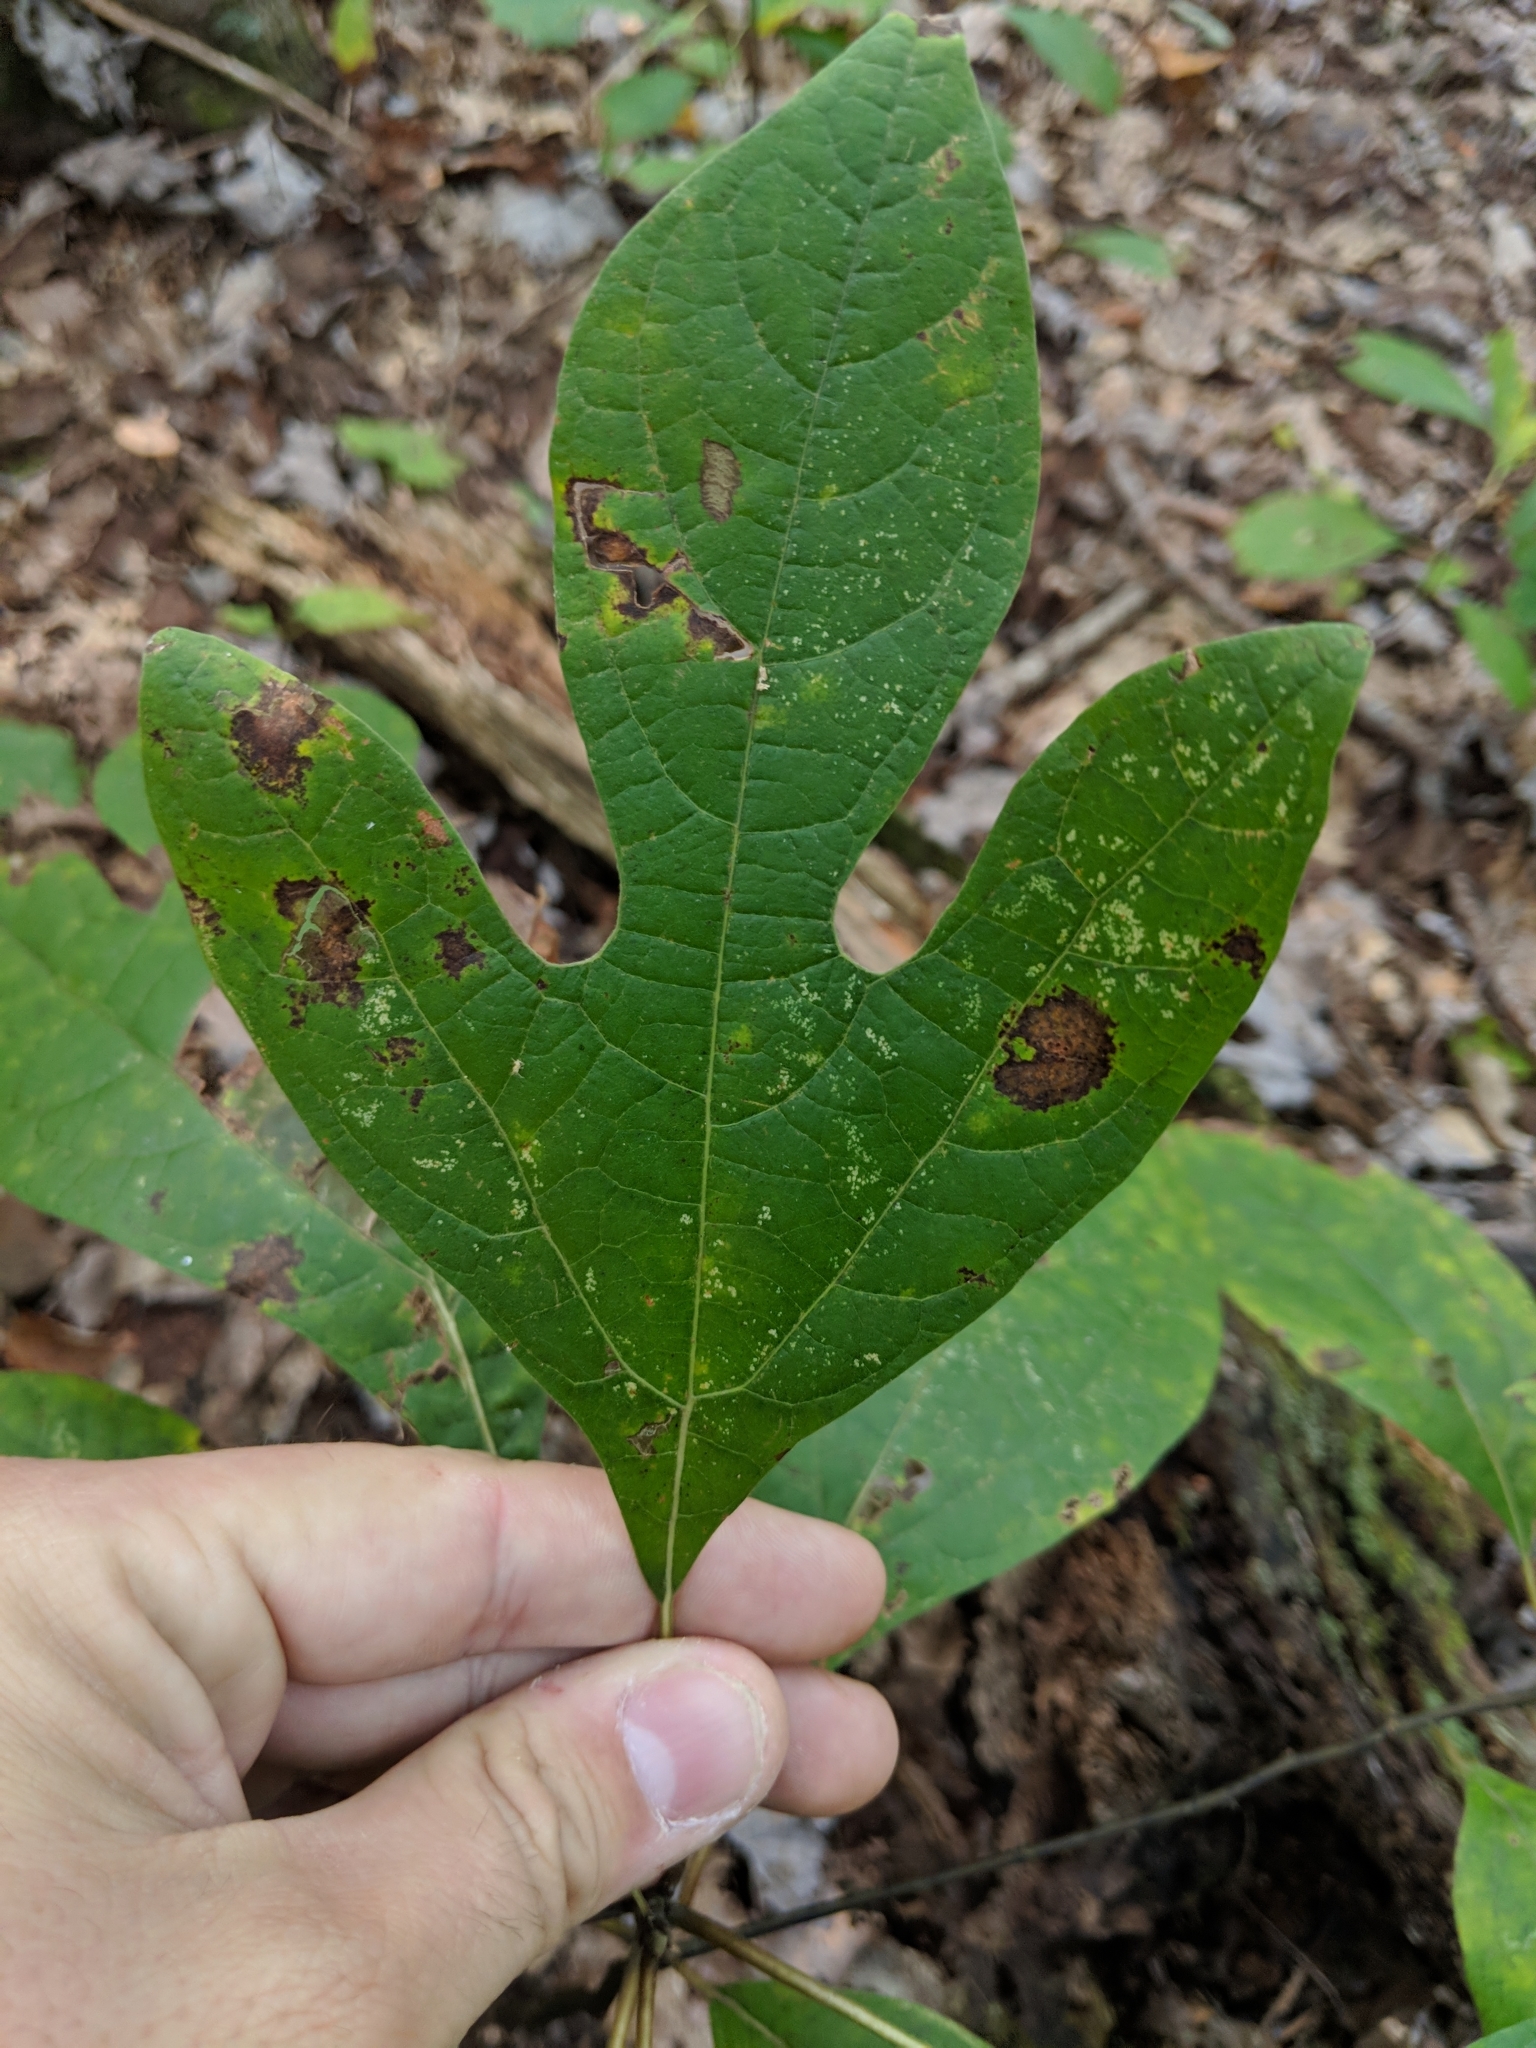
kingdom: Plantae
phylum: Tracheophyta
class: Magnoliopsida
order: Laurales
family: Lauraceae
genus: Sassafras
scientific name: Sassafras albidum
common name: Sassafras
